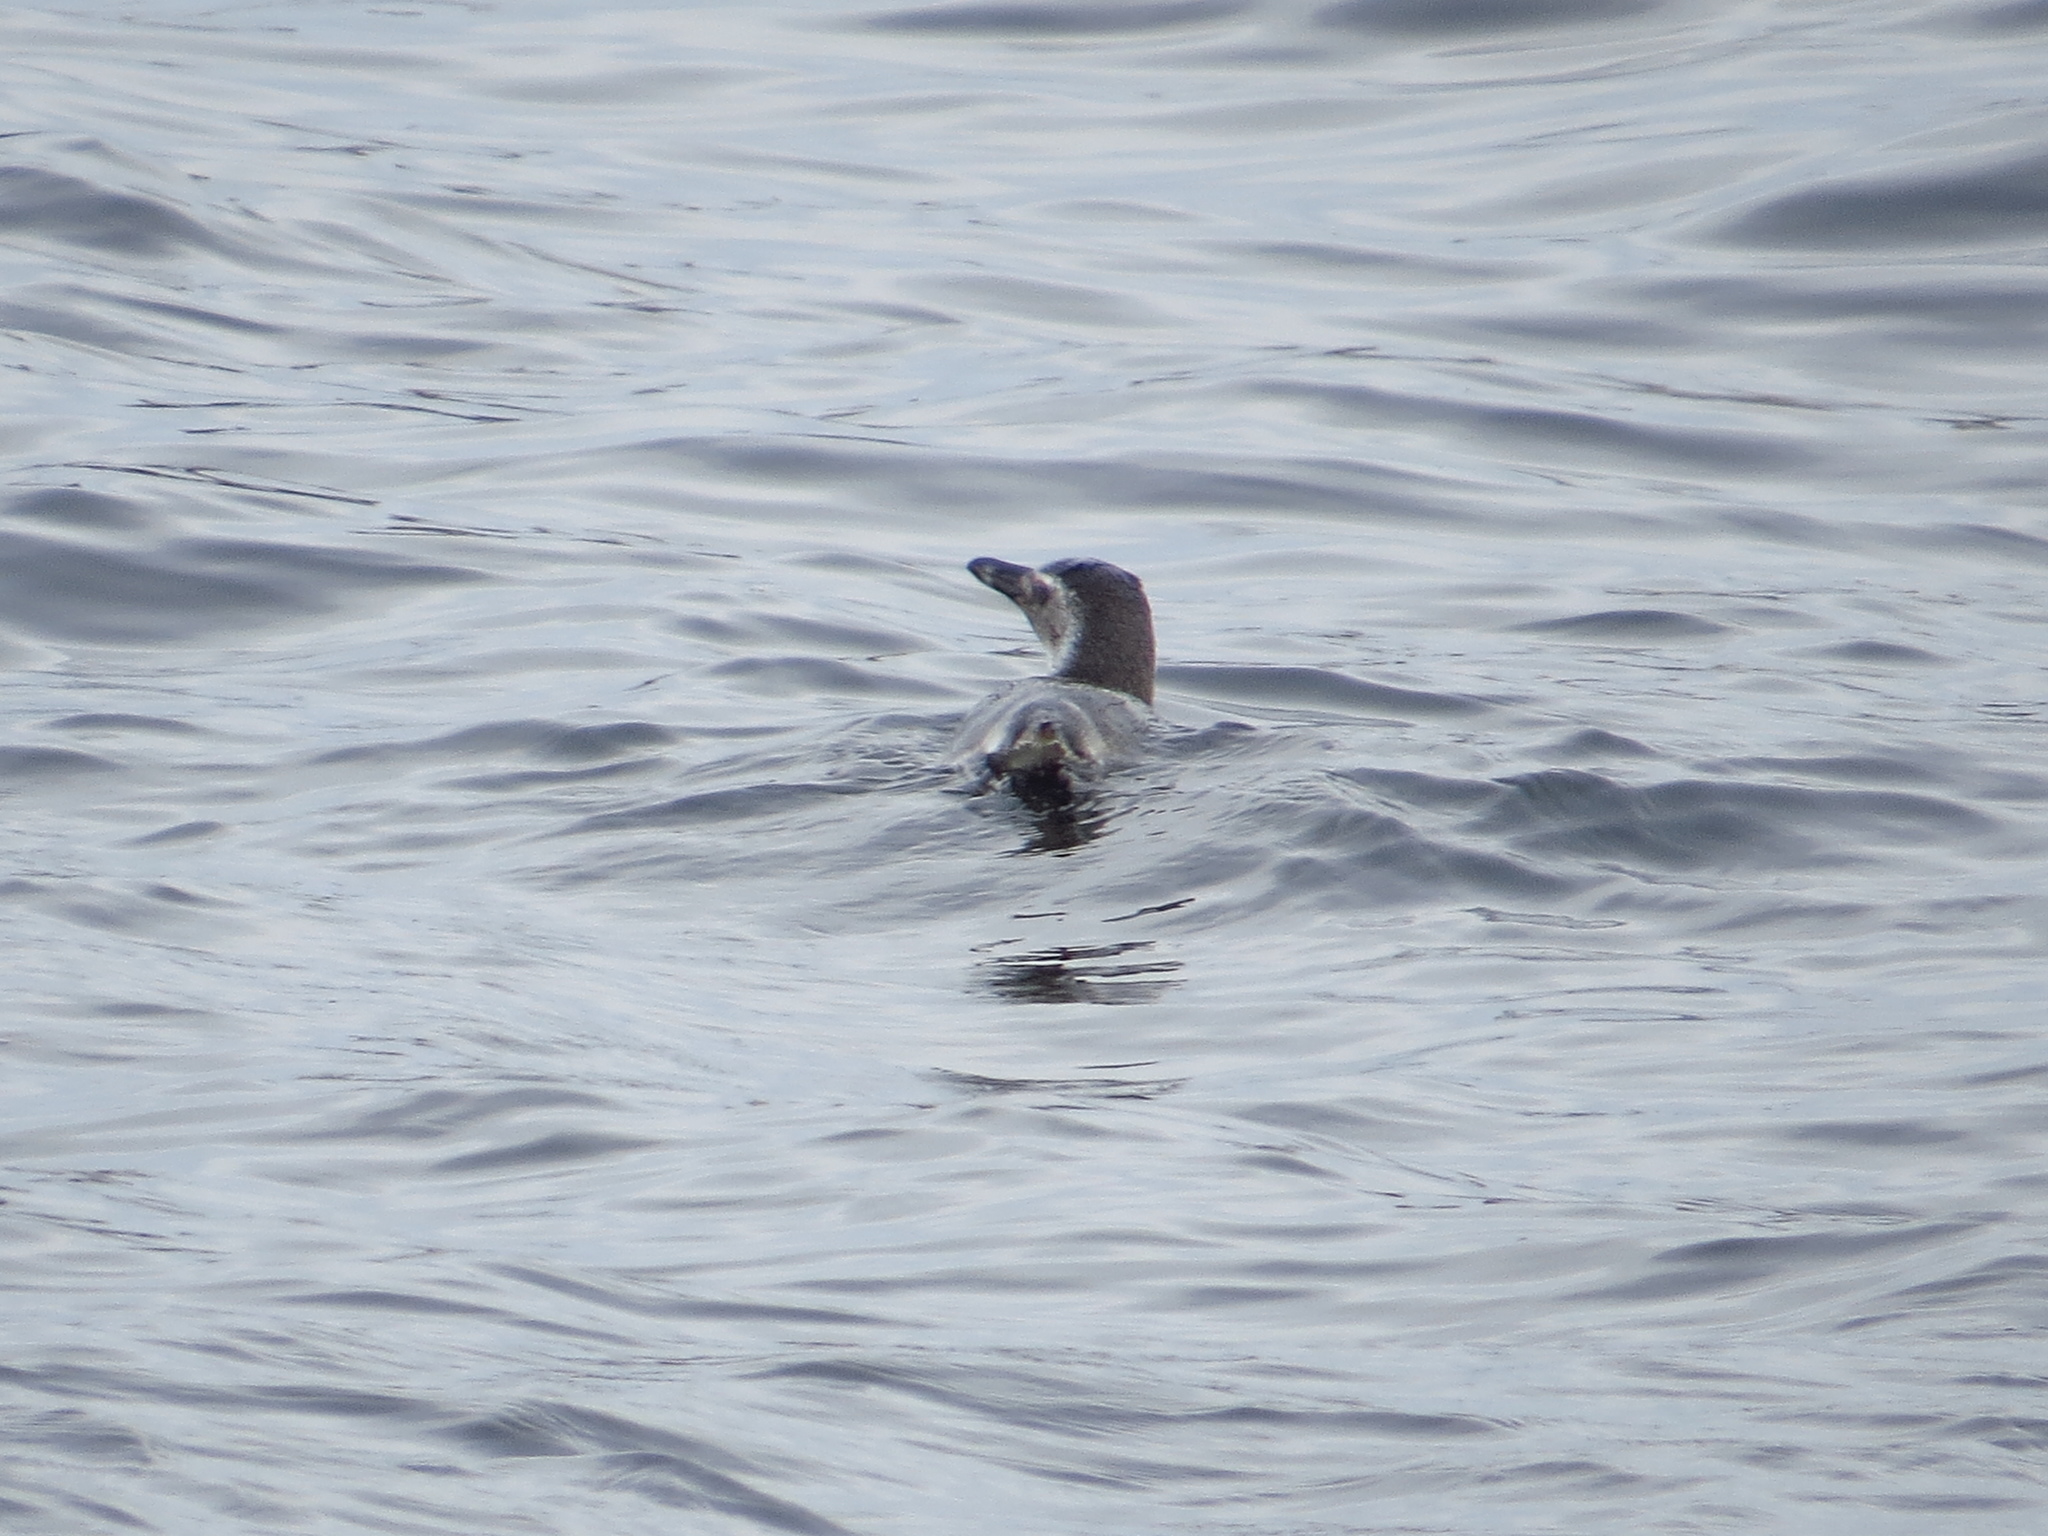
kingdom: Animalia
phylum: Chordata
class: Aves
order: Sphenisciformes
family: Spheniscidae
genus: Spheniscus
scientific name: Spheniscus magellanicus
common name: Magellanic penguin
